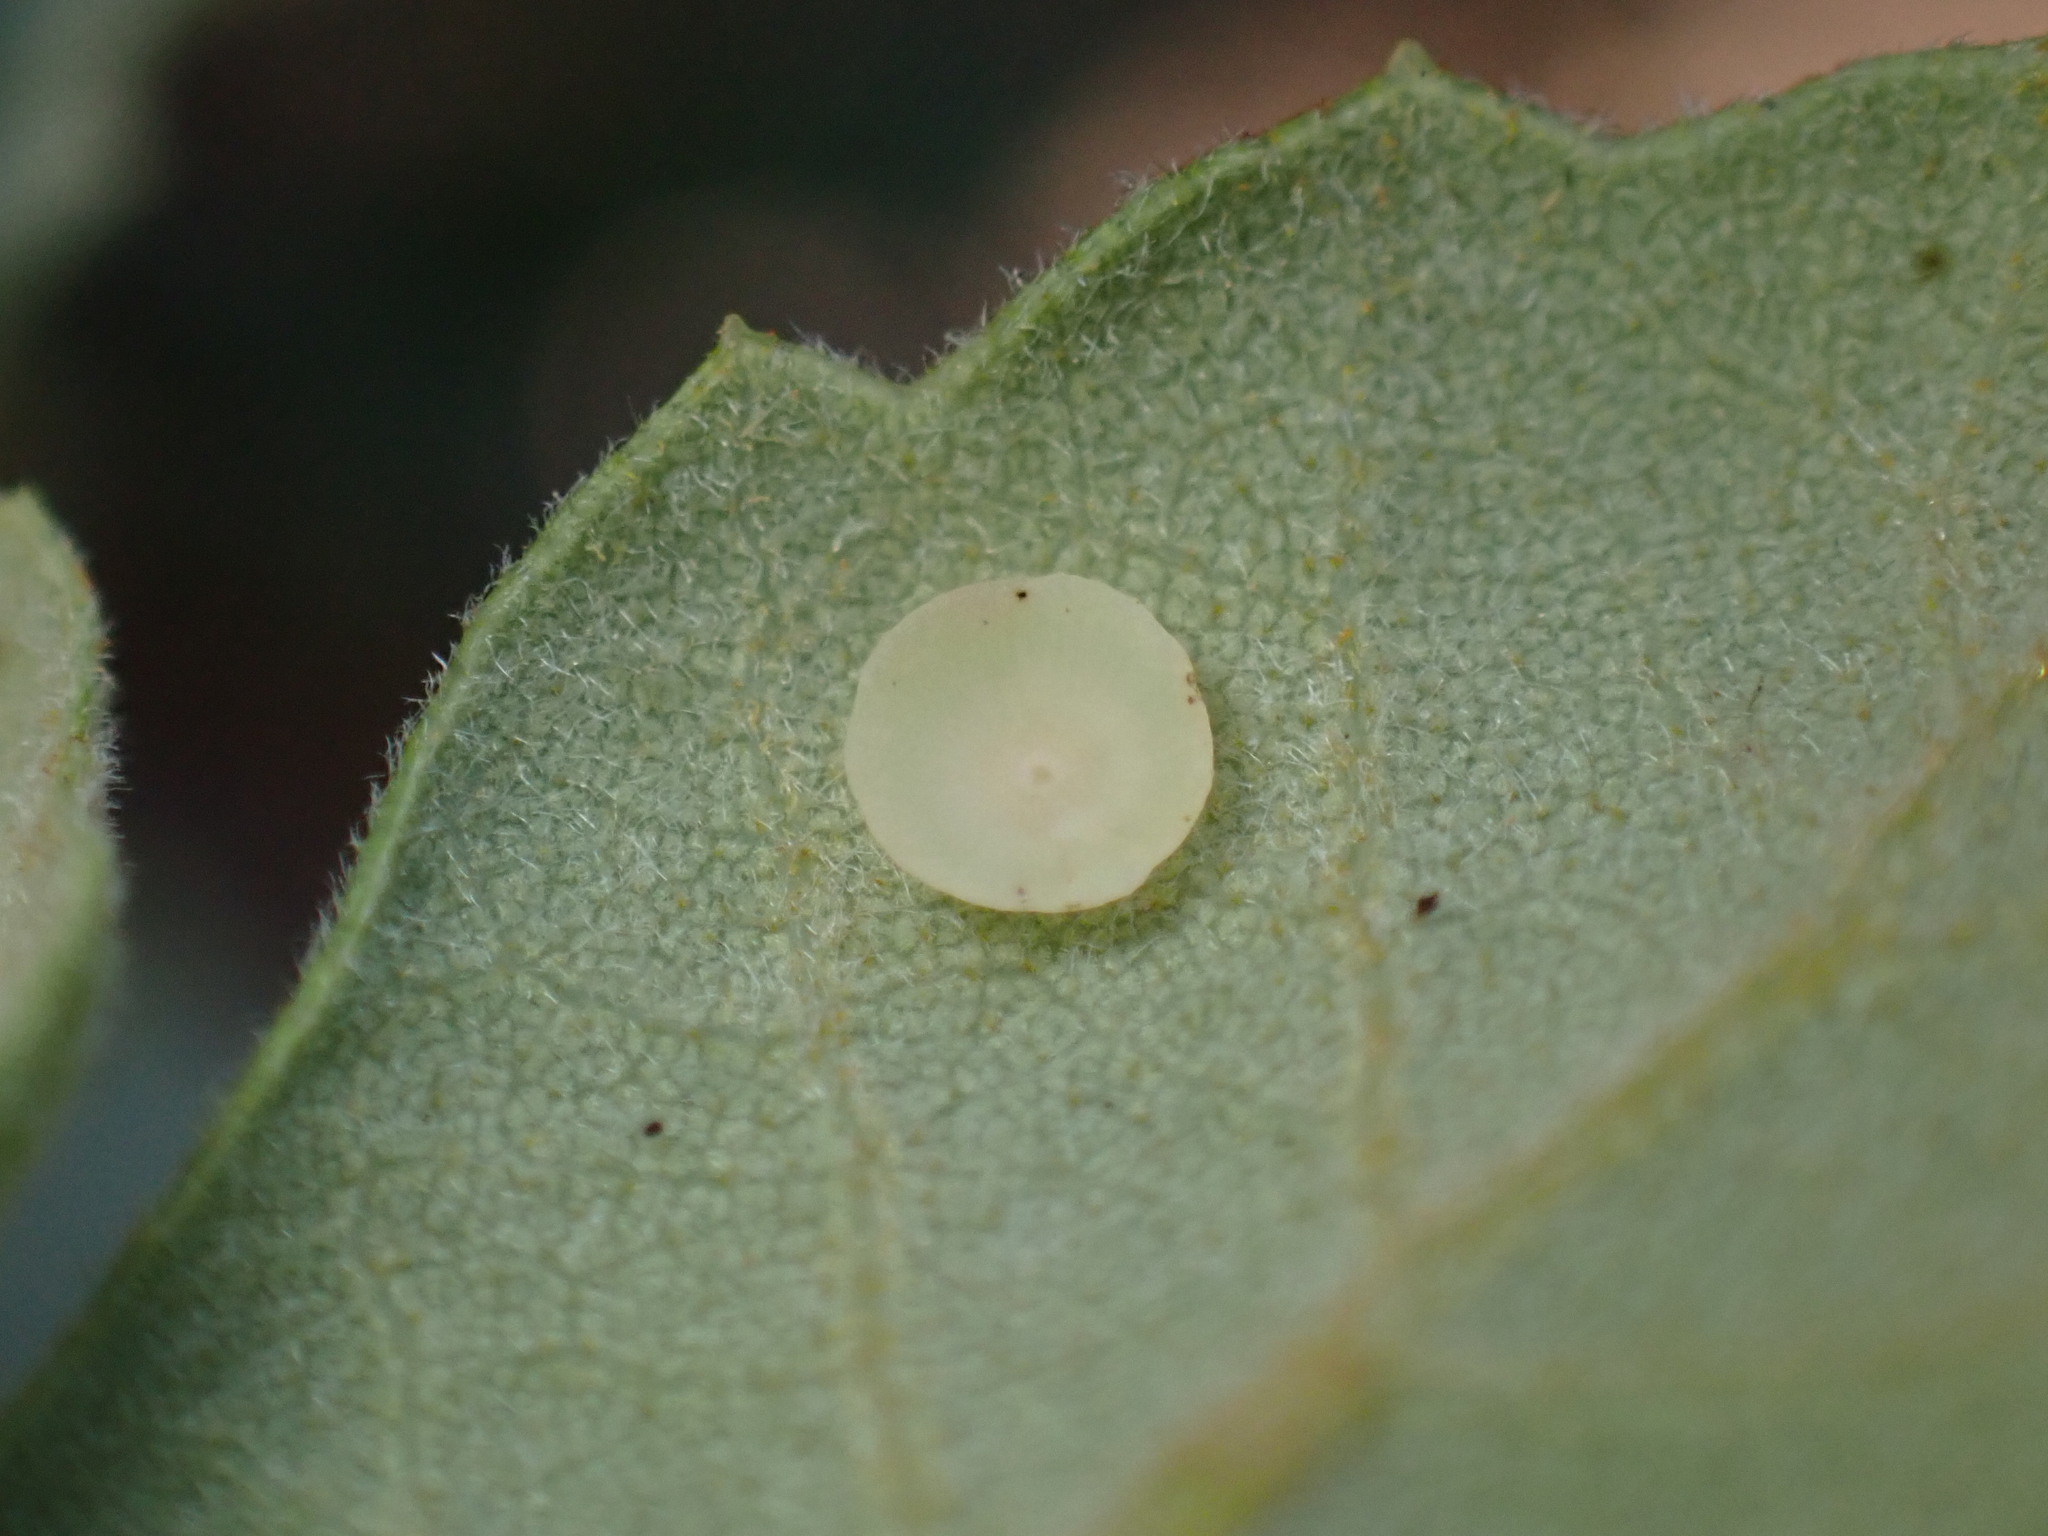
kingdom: Animalia
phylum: Arthropoda
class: Insecta
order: Hymenoptera
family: Cynipidae
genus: Andricus
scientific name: Andricus
